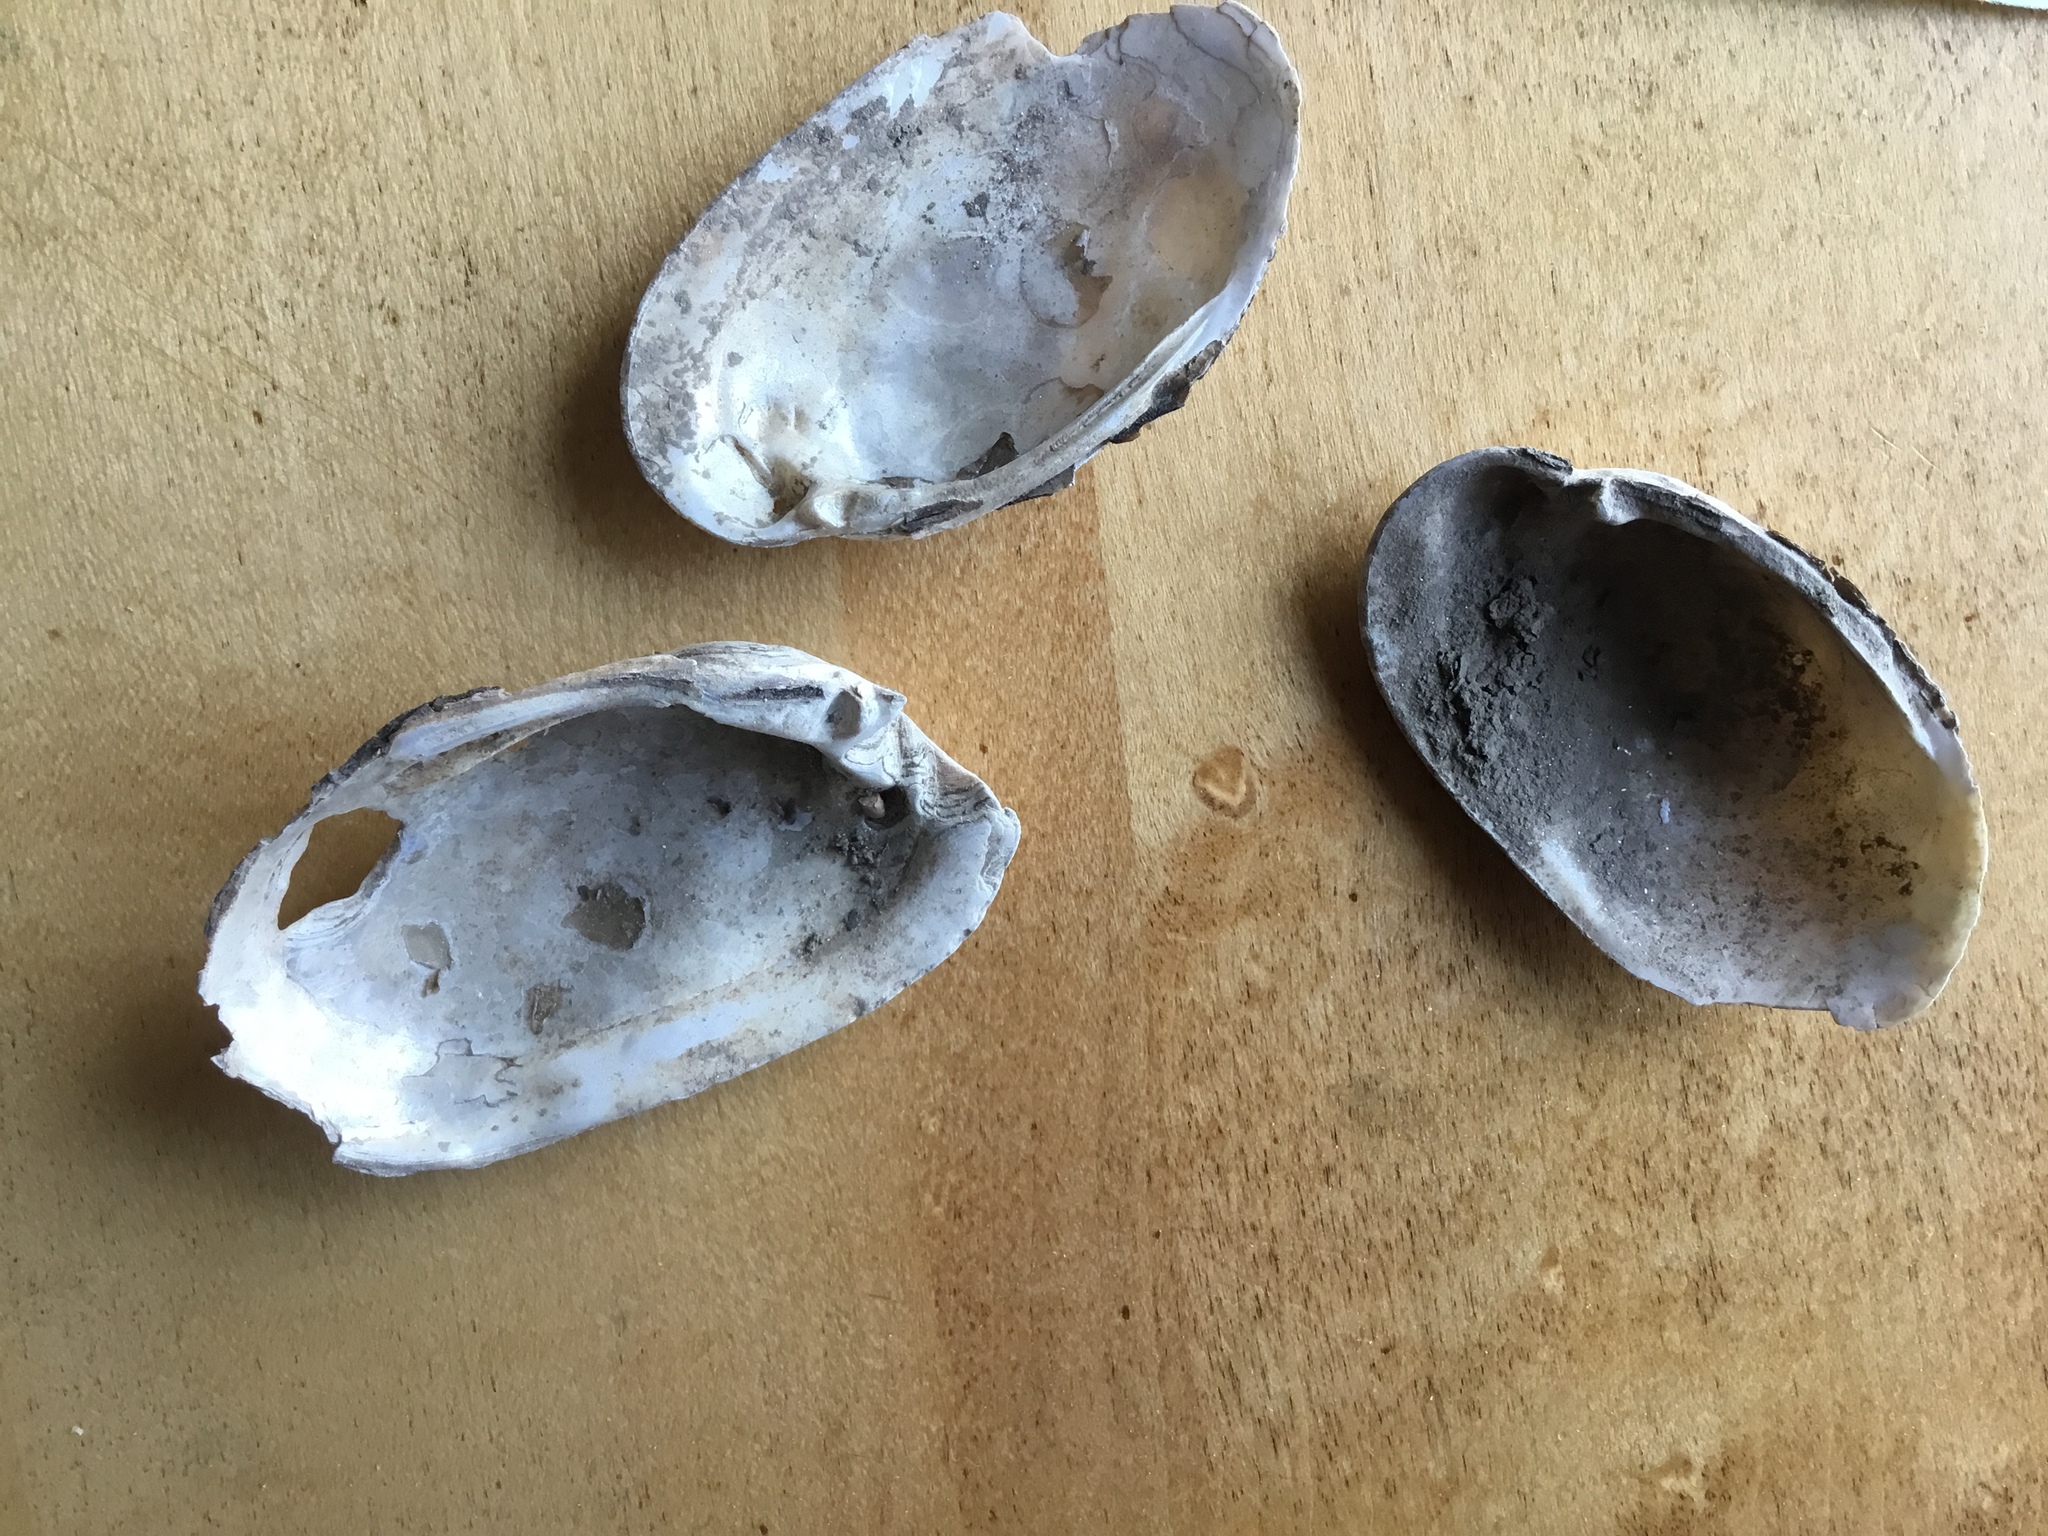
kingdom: Animalia
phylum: Mollusca
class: Bivalvia
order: Unionida
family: Unionidae
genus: Lampsilis
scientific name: Lampsilis siliquoidea
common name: Fatmucket
